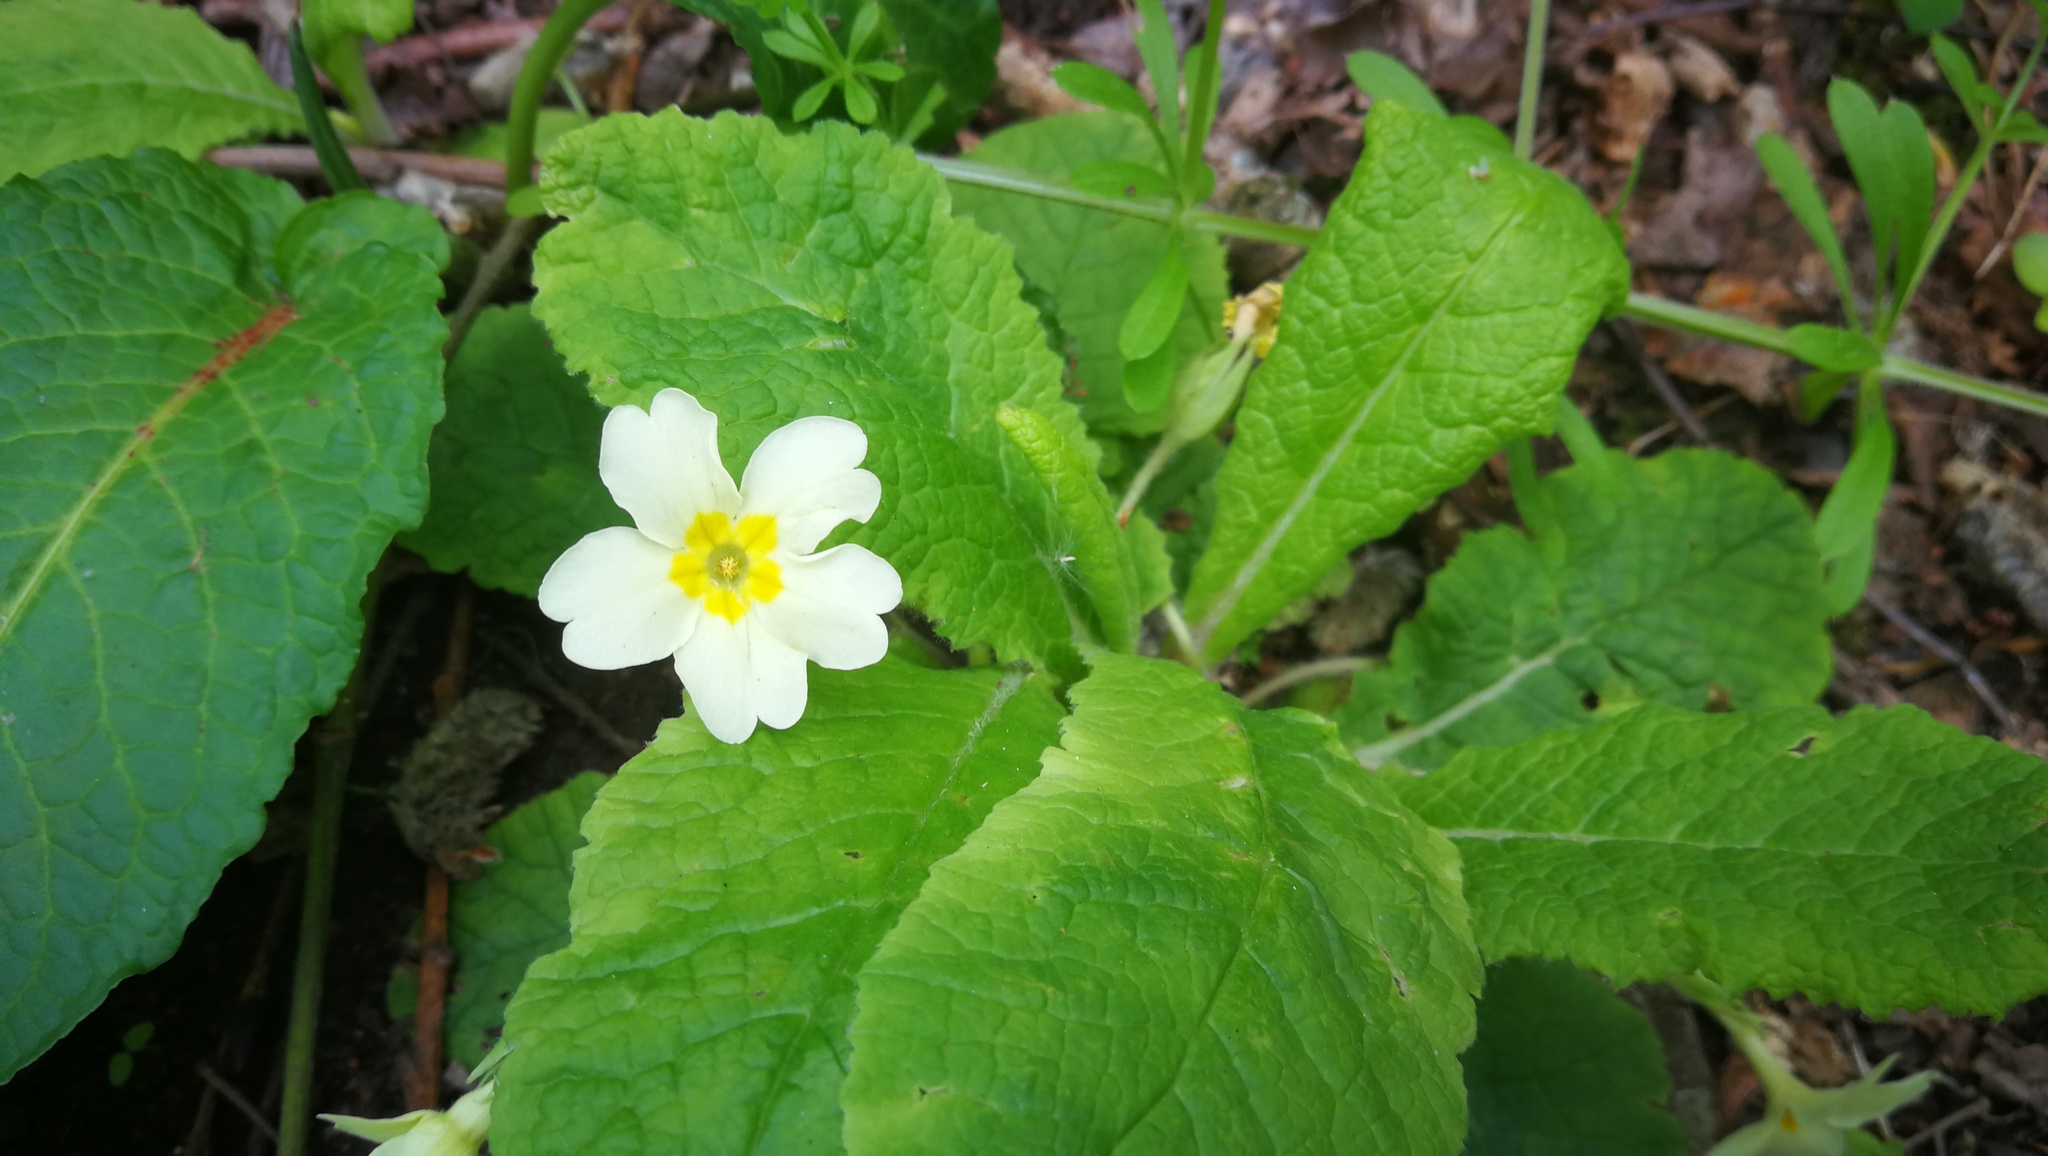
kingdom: Plantae
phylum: Tracheophyta
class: Magnoliopsida
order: Ericales
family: Primulaceae
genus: Primula
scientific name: Primula vulgaris
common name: Primrose
